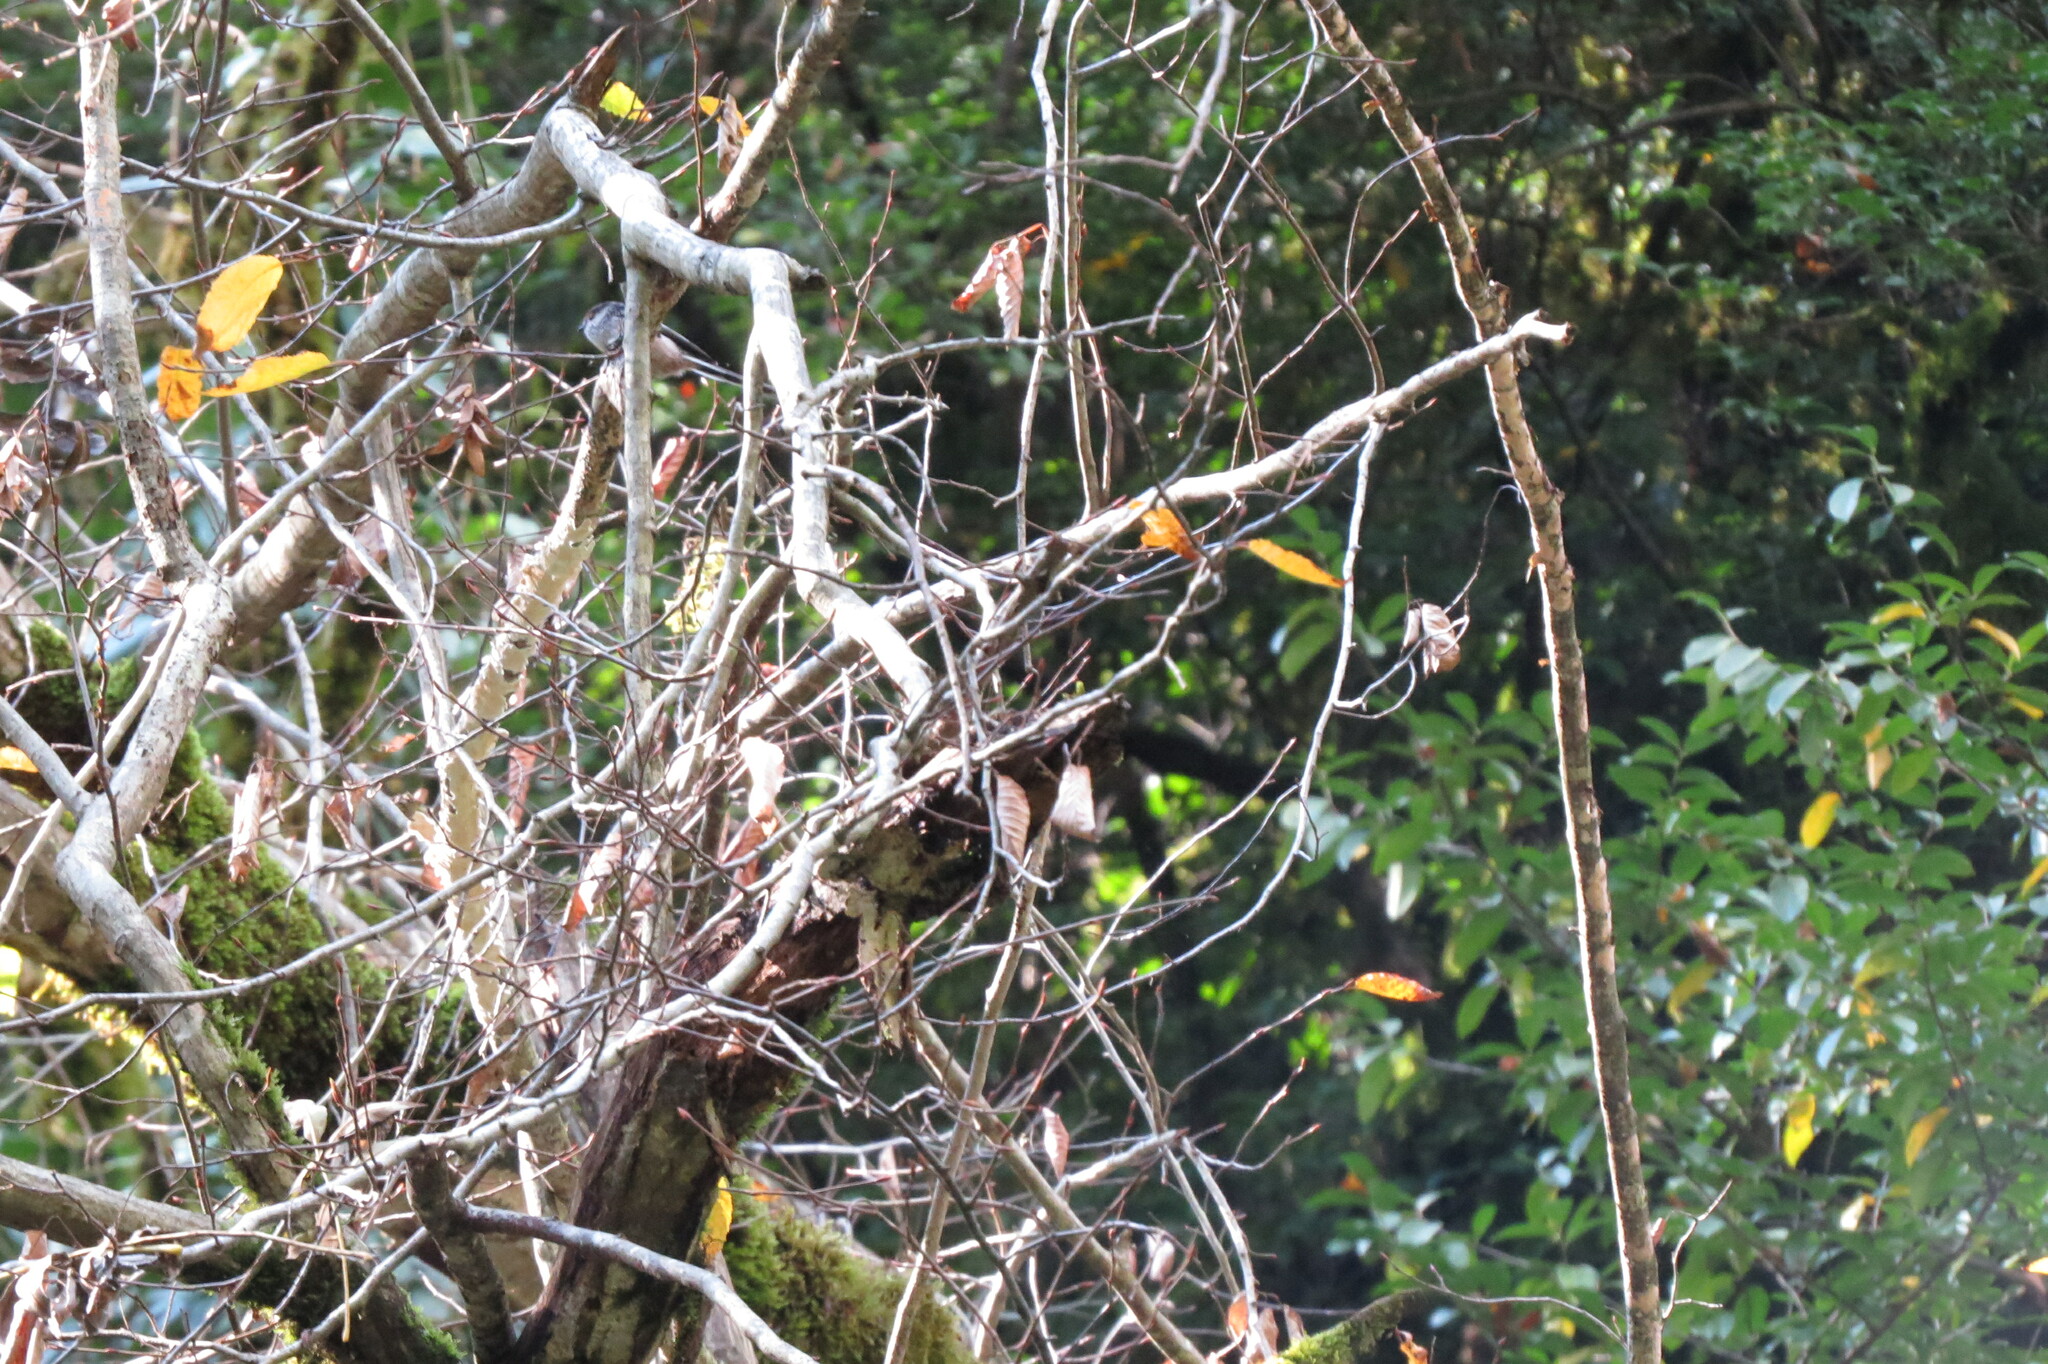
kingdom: Animalia
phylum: Chordata
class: Aves
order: Passeriformes
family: Aegithalidae
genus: Aegithalos
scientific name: Aegithalos caudatus
